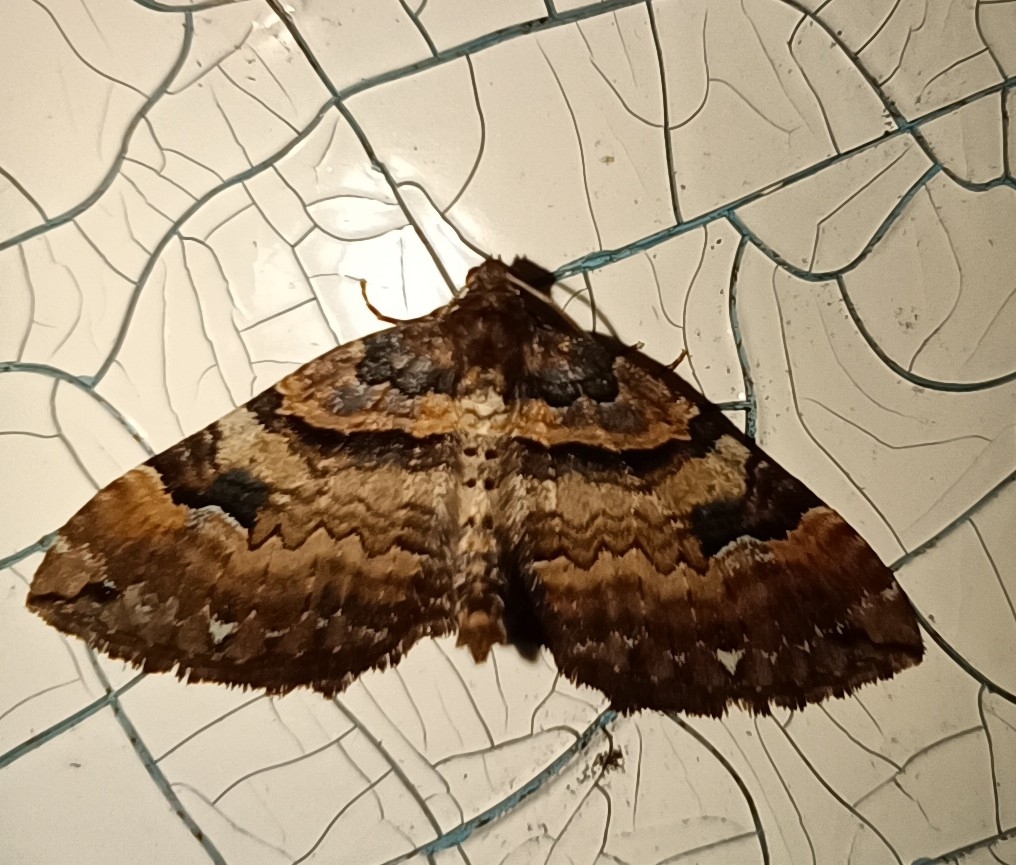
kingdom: Animalia
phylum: Arthropoda
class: Insecta
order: Lepidoptera
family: Geometridae
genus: Anticlea
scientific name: Anticlea badiata
